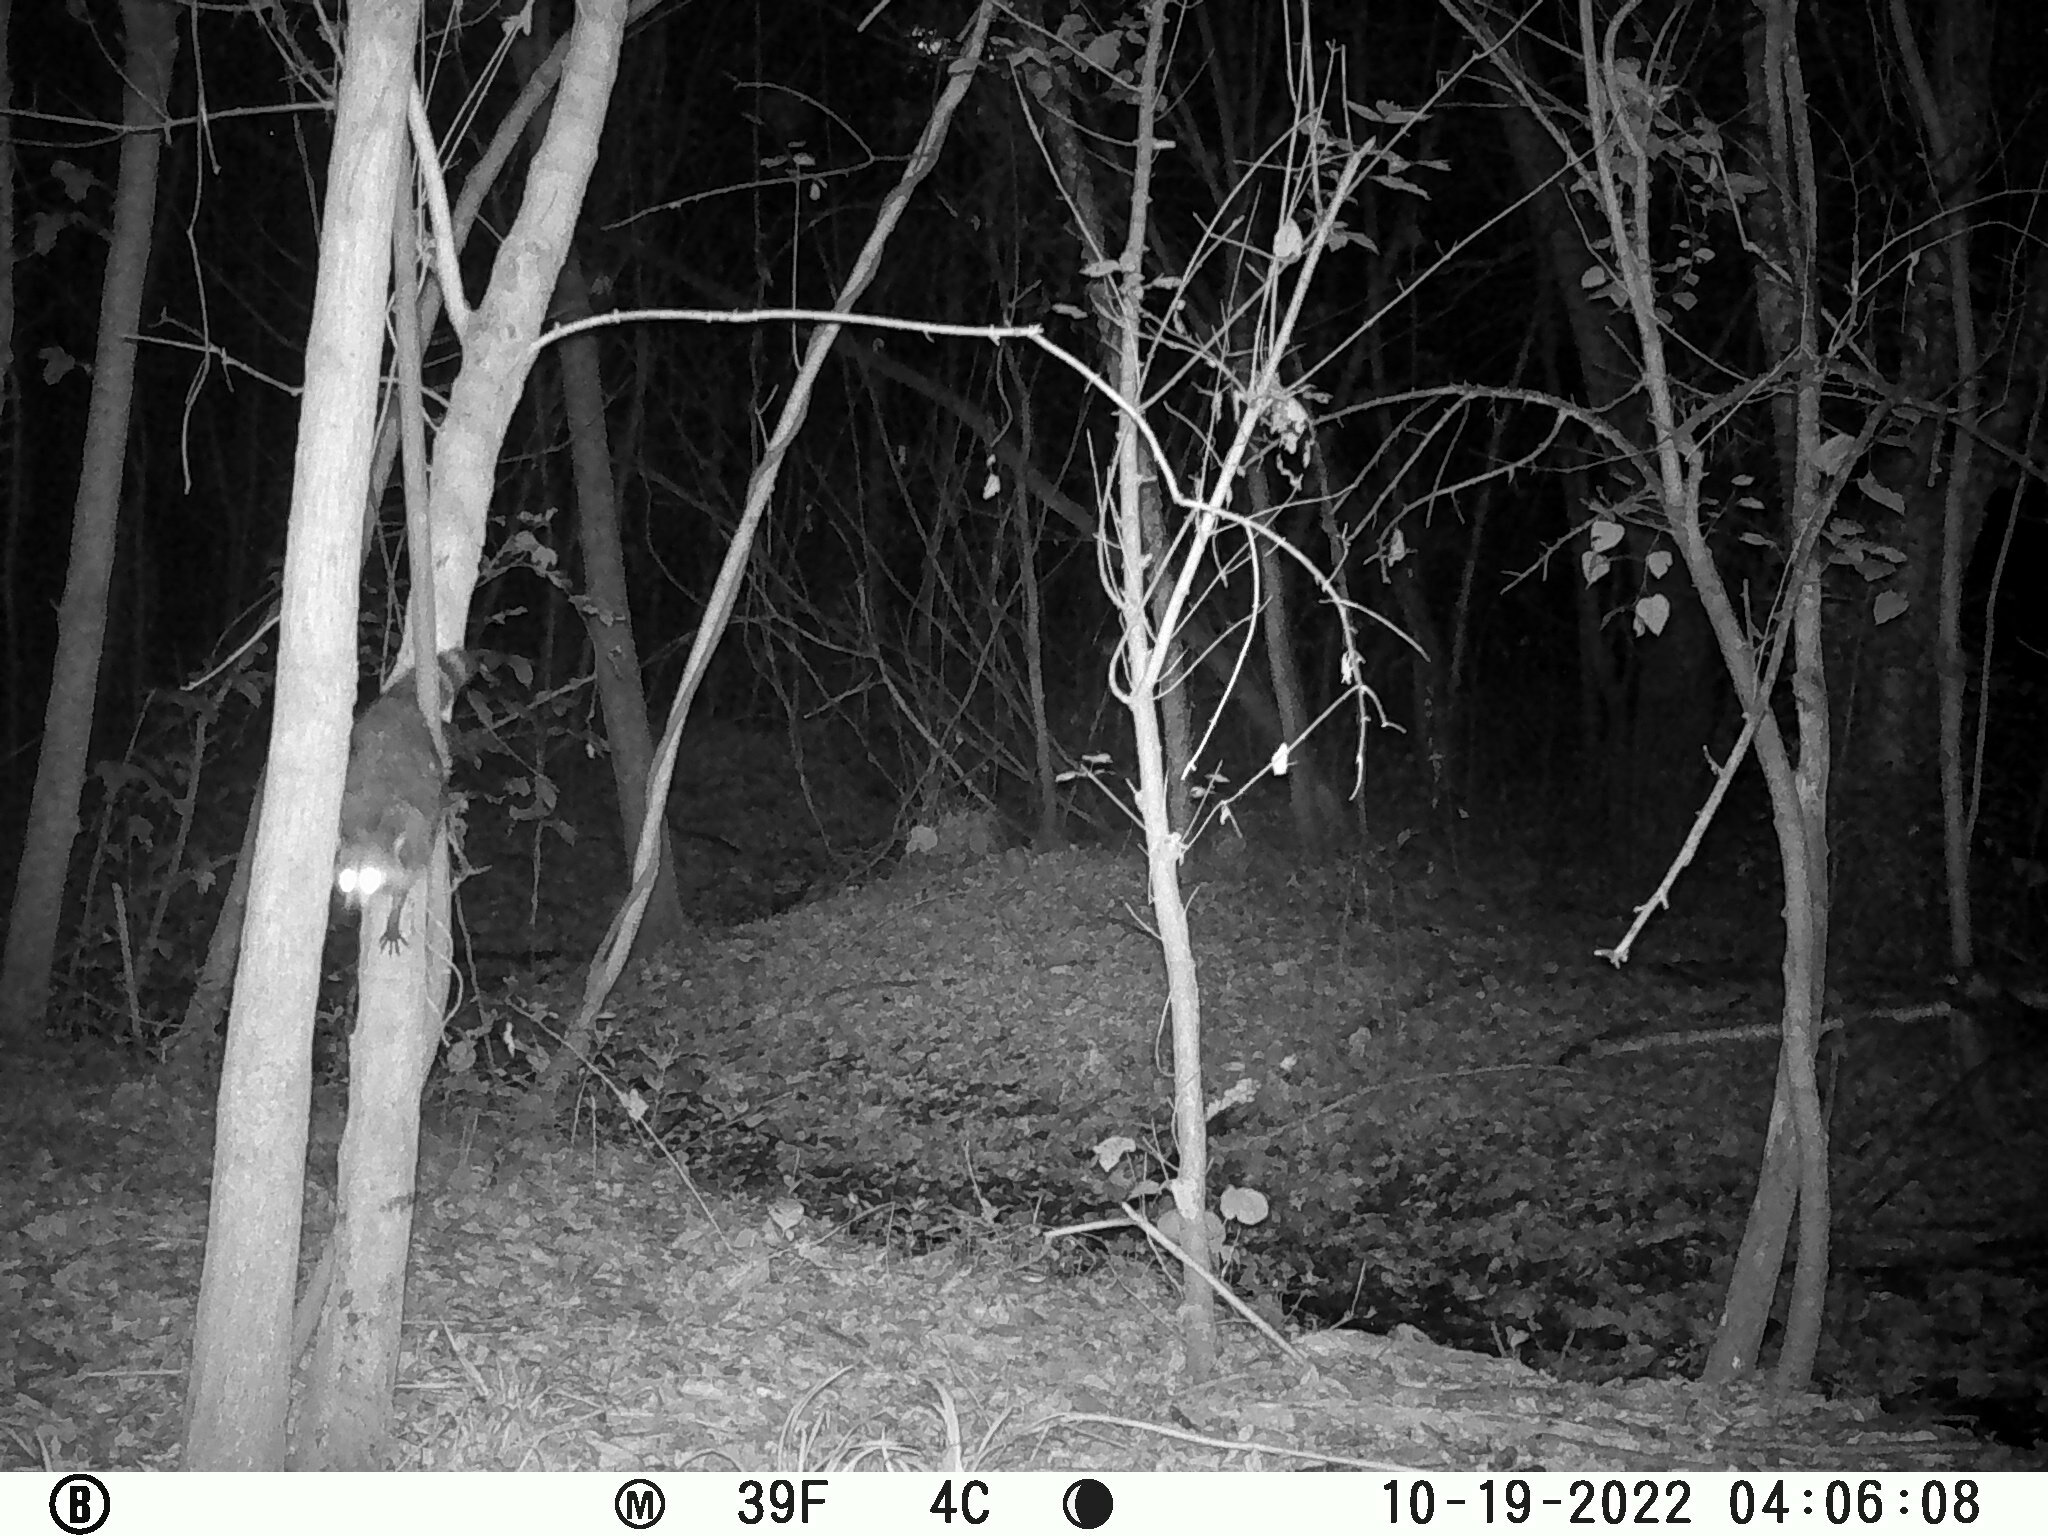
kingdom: Animalia
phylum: Chordata
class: Mammalia
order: Carnivora
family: Procyonidae
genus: Procyon
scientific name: Procyon lotor
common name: Raccoon
